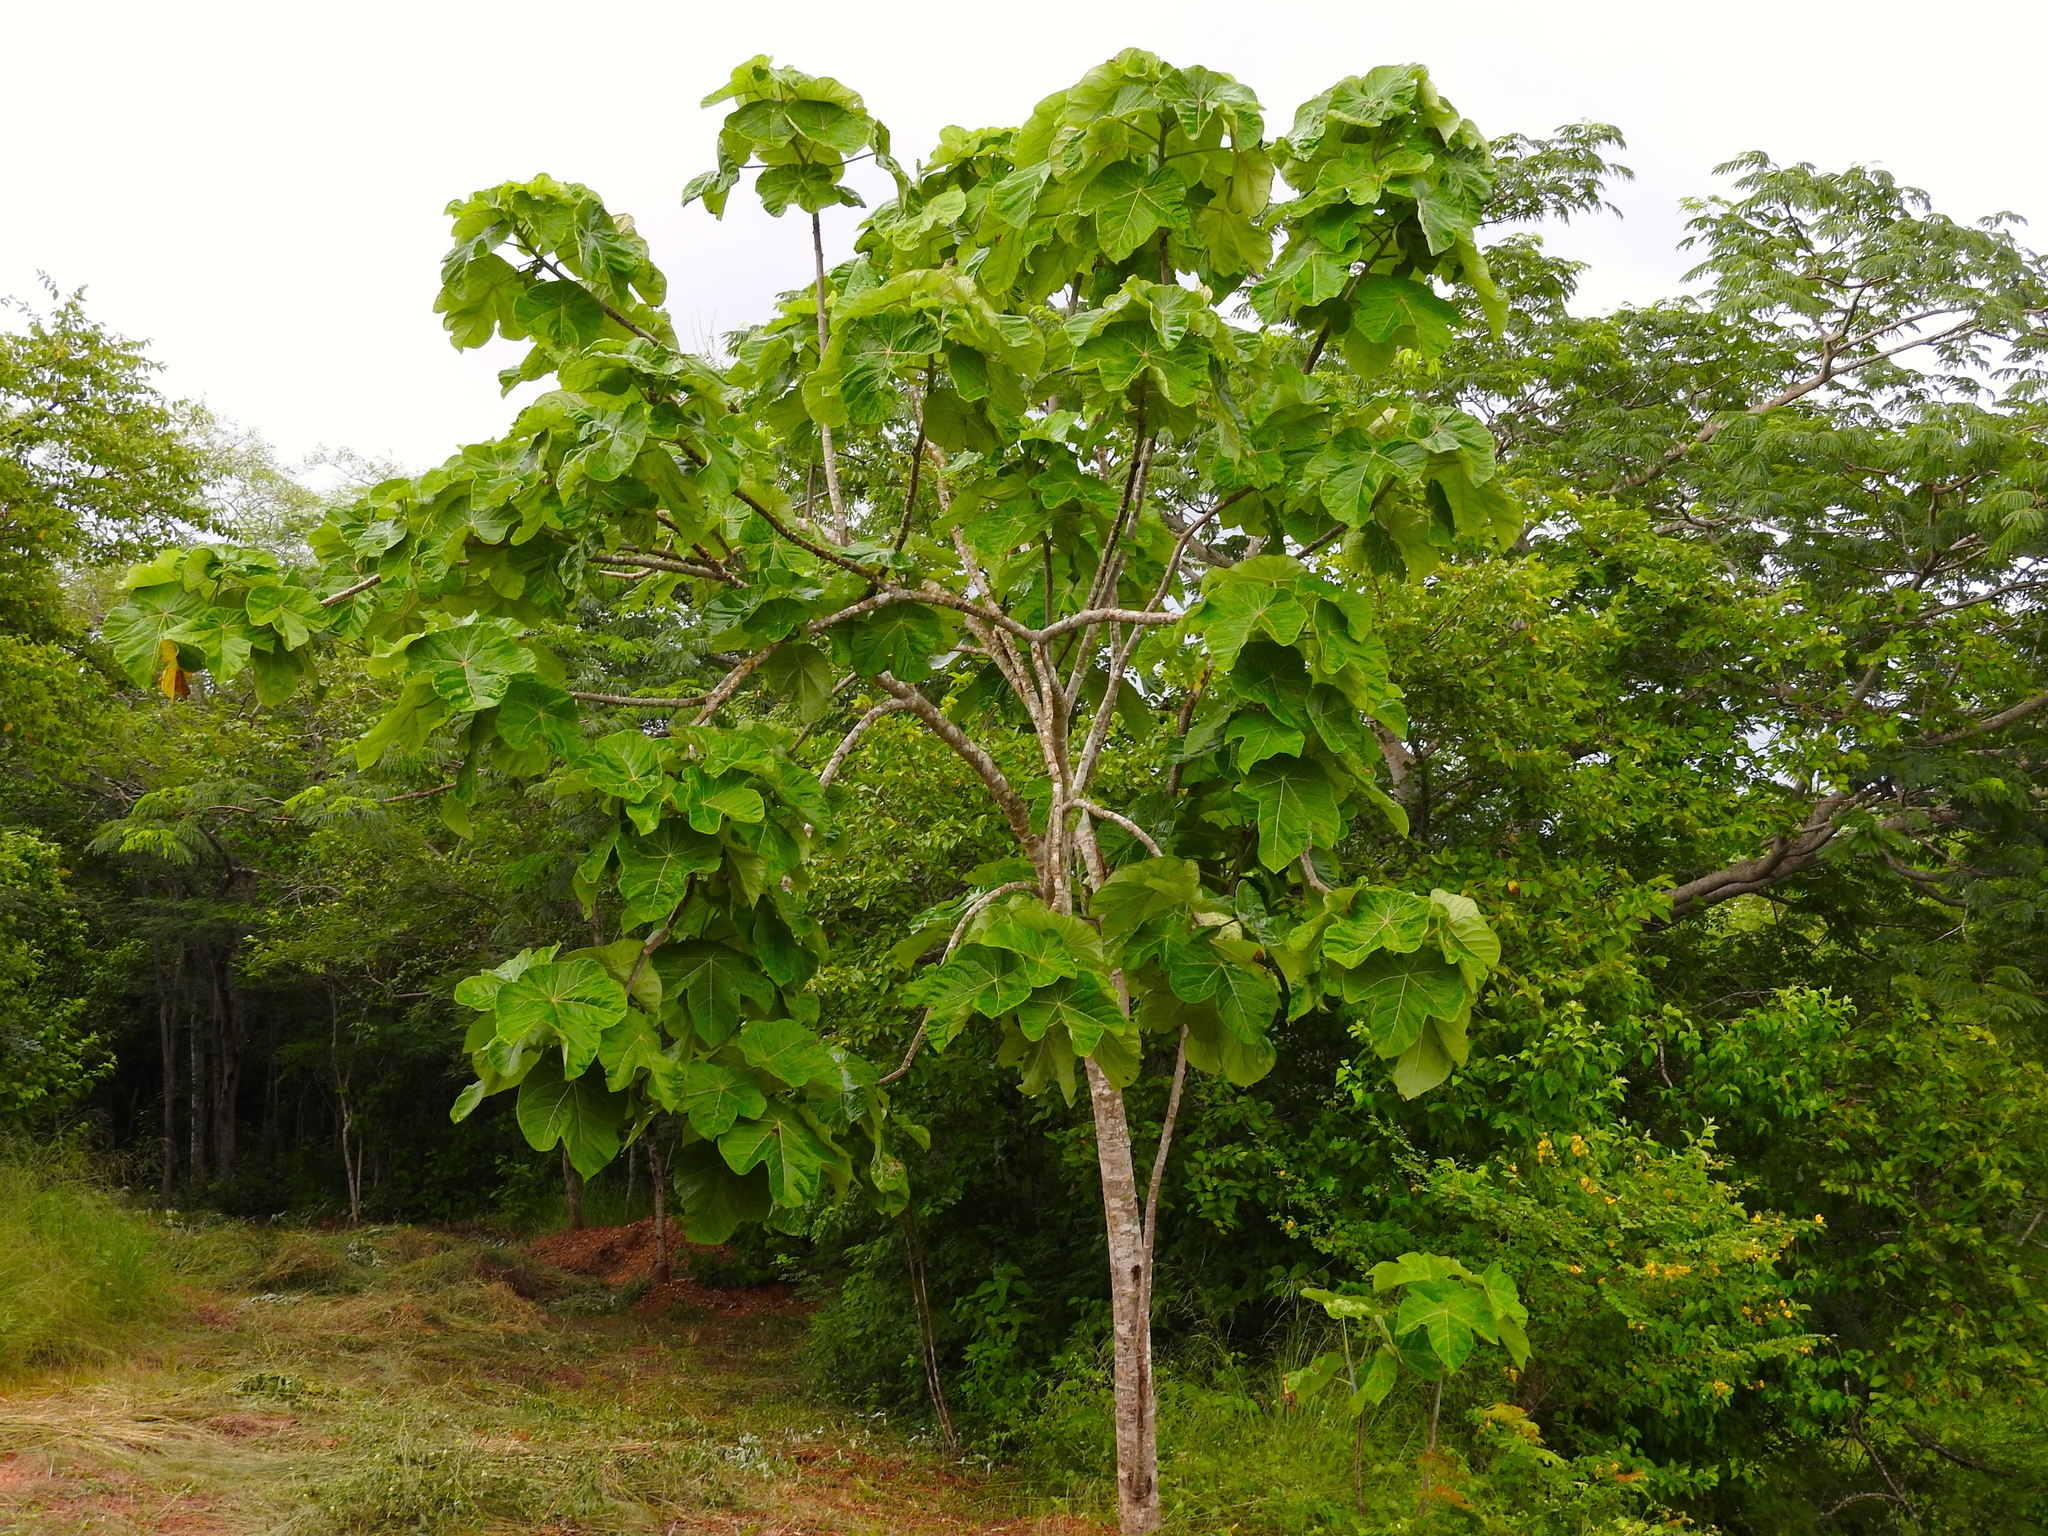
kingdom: Plantae
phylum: Tracheophyta
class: Magnoliopsida
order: Malpighiales
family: Euphorbiaceae
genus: Jatropha
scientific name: Jatropha peltata
